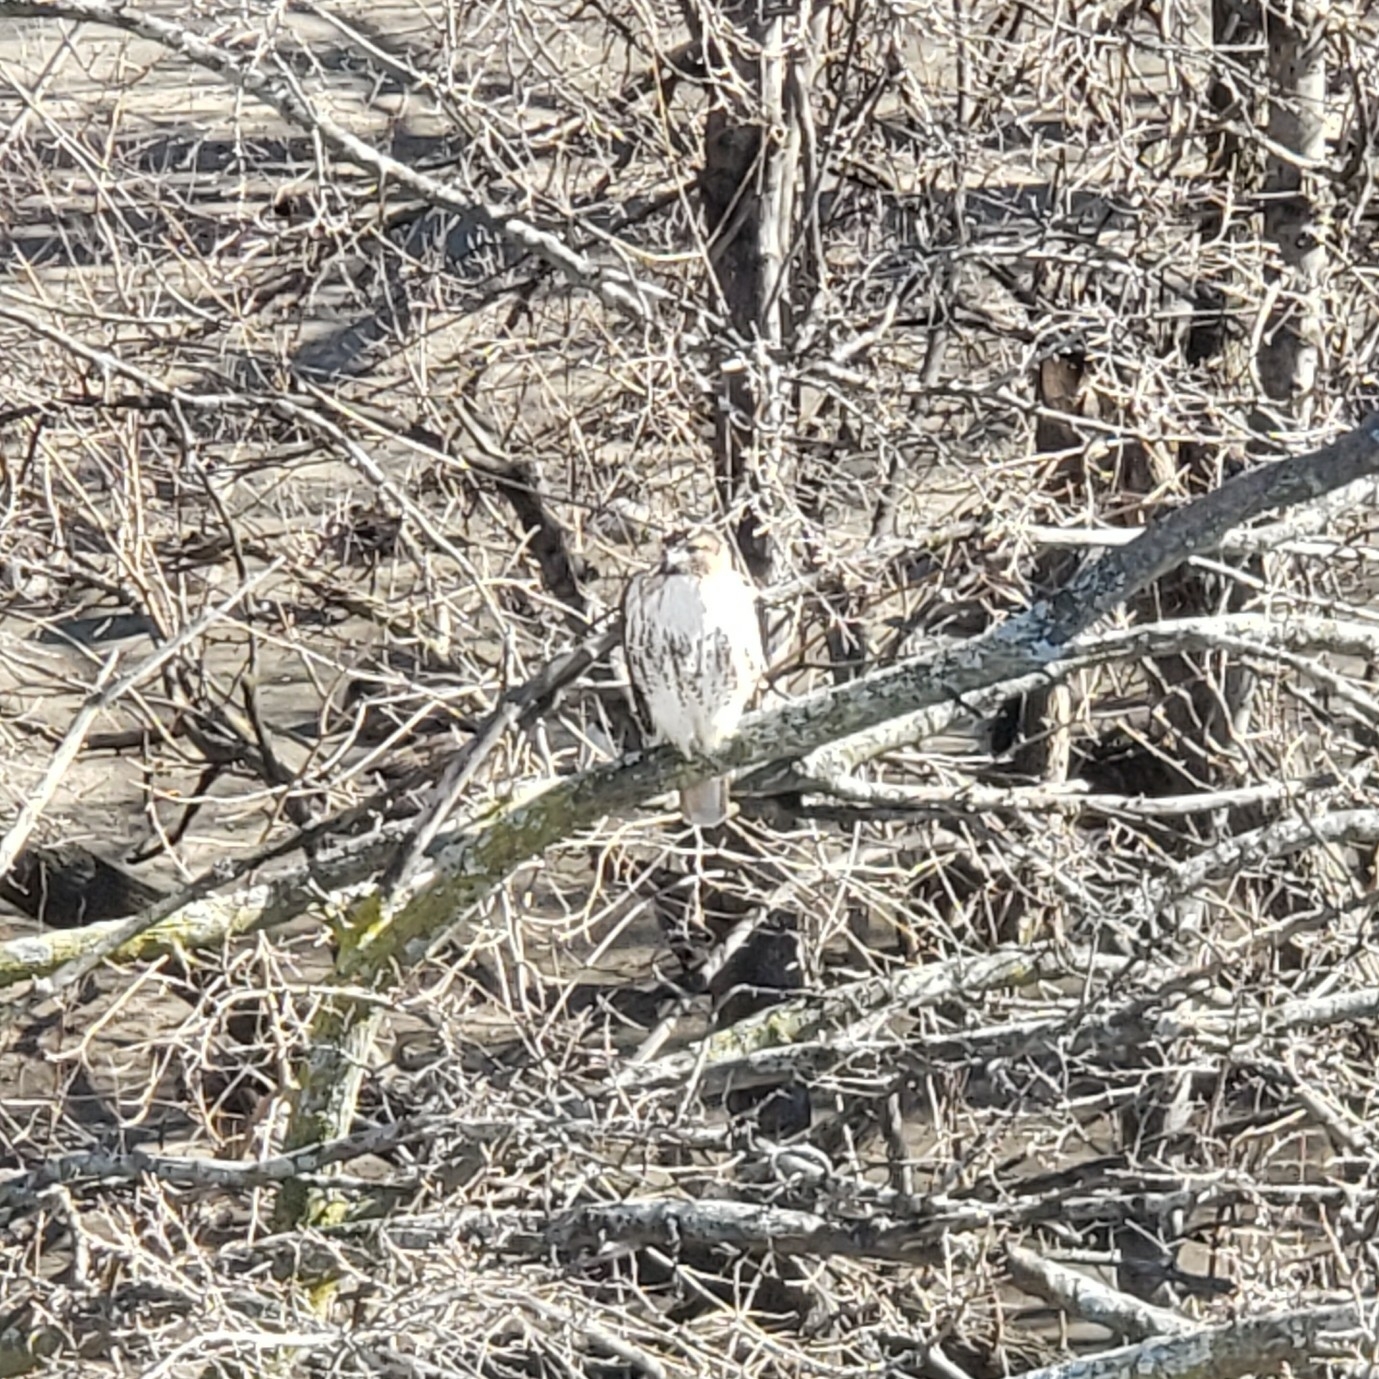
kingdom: Animalia
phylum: Chordata
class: Aves
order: Accipitriformes
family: Accipitridae
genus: Buteo
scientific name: Buteo jamaicensis
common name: Red-tailed hawk
